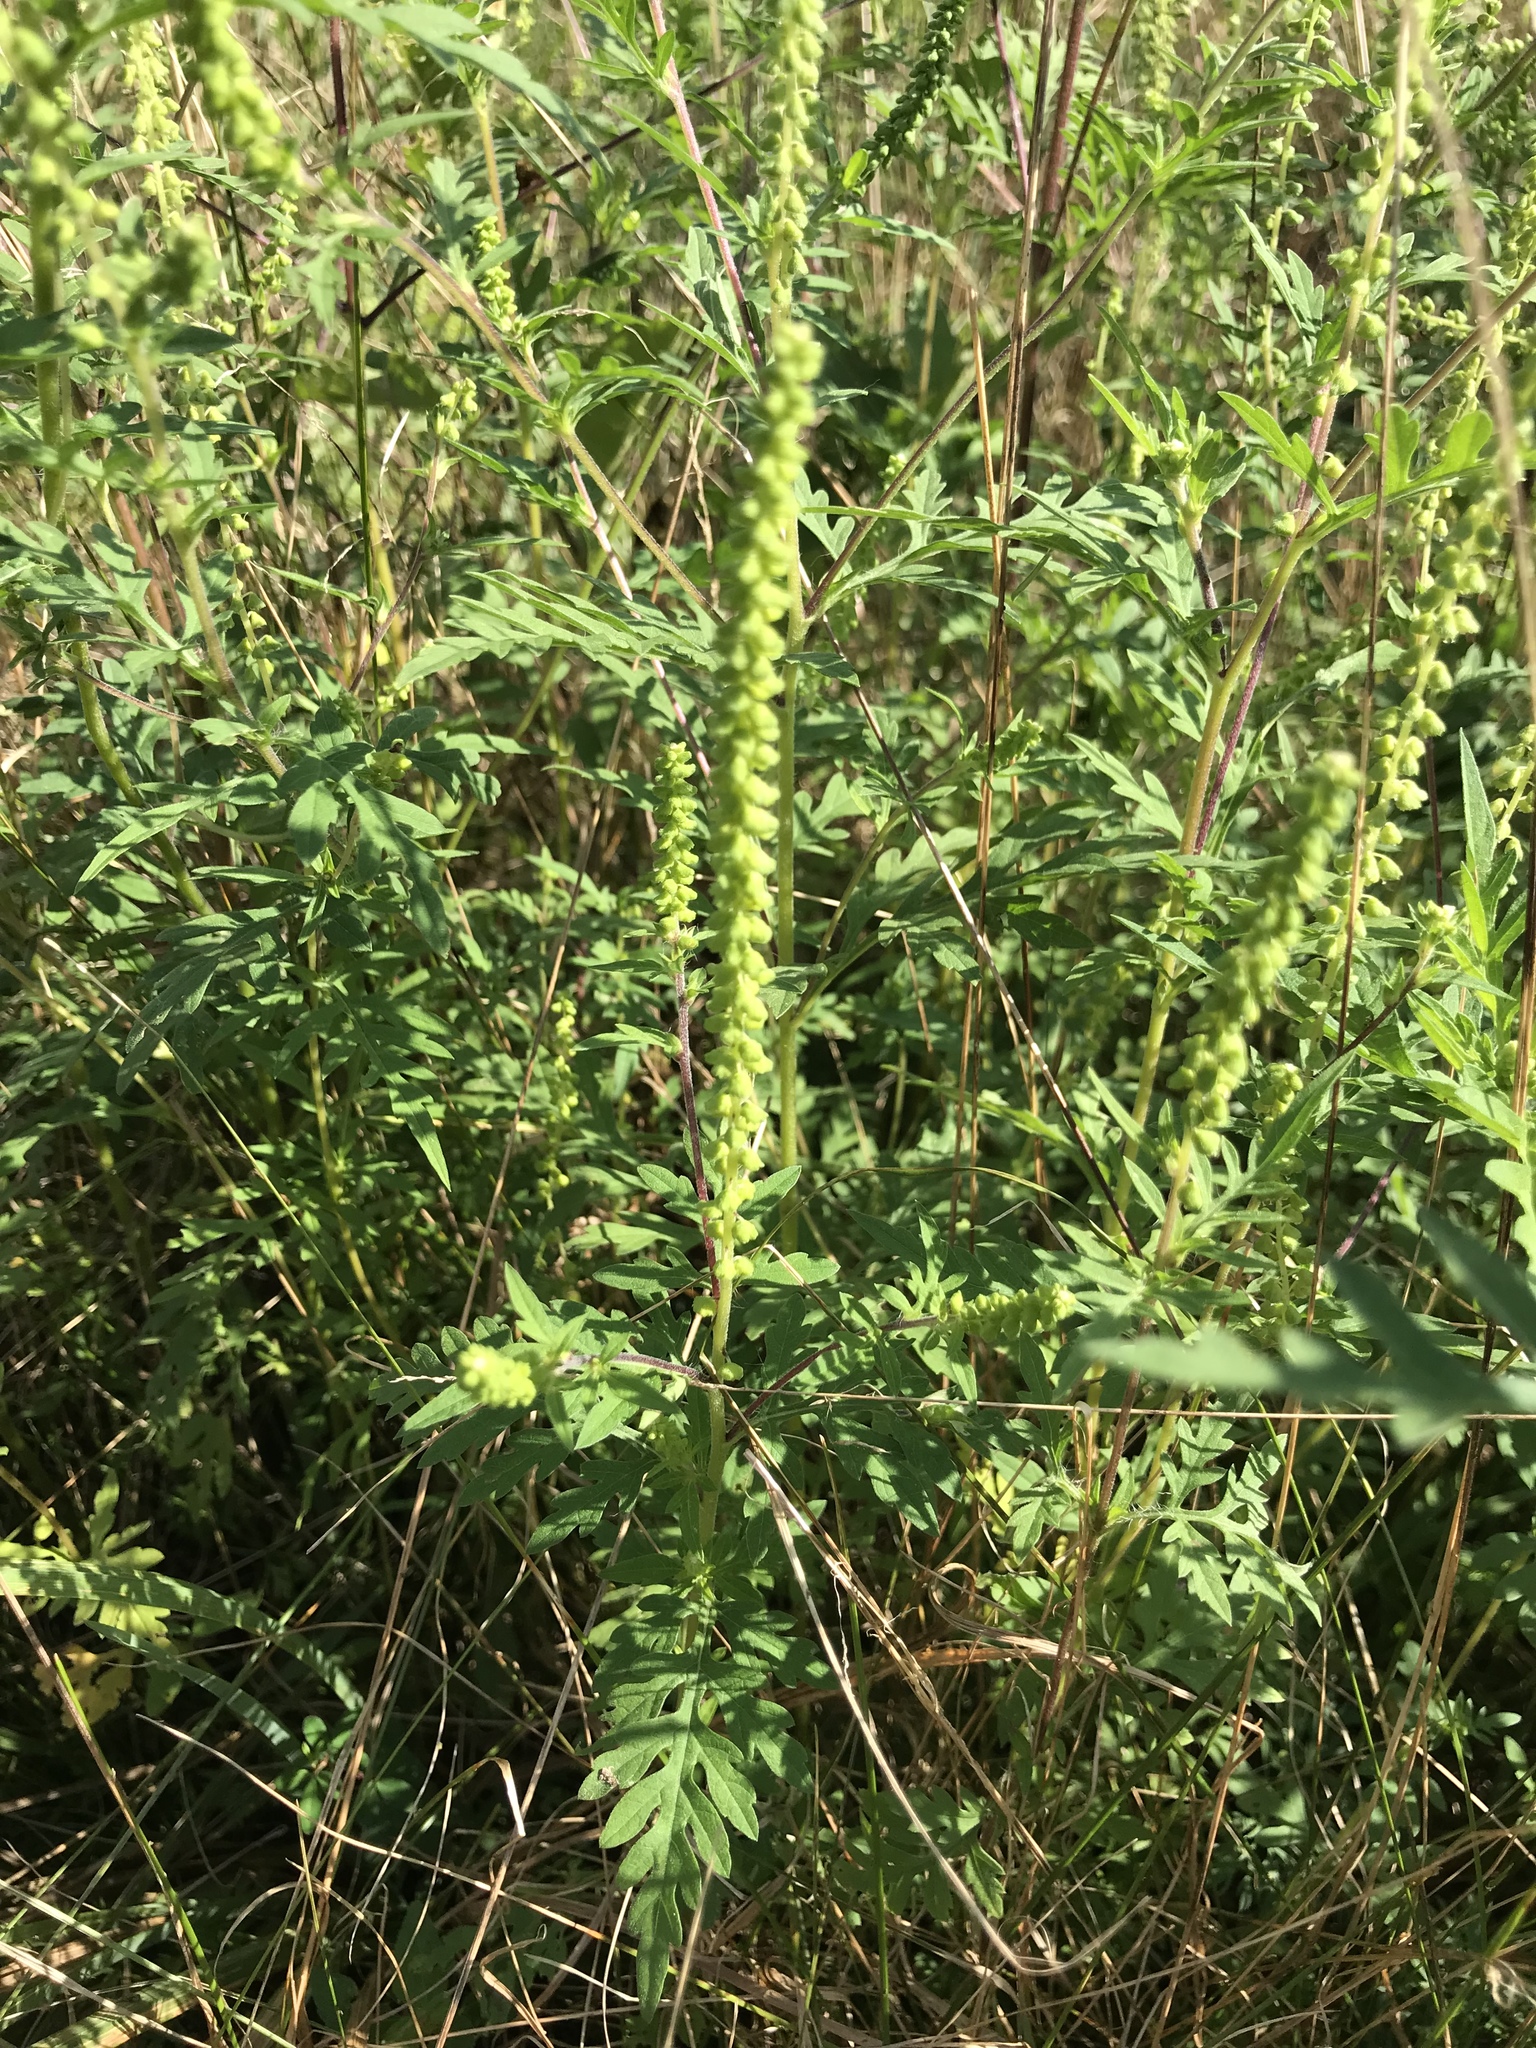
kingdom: Plantae
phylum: Tracheophyta
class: Magnoliopsida
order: Asterales
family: Asteraceae
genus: Ambrosia
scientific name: Ambrosia artemisiifolia
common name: Annual ragweed
